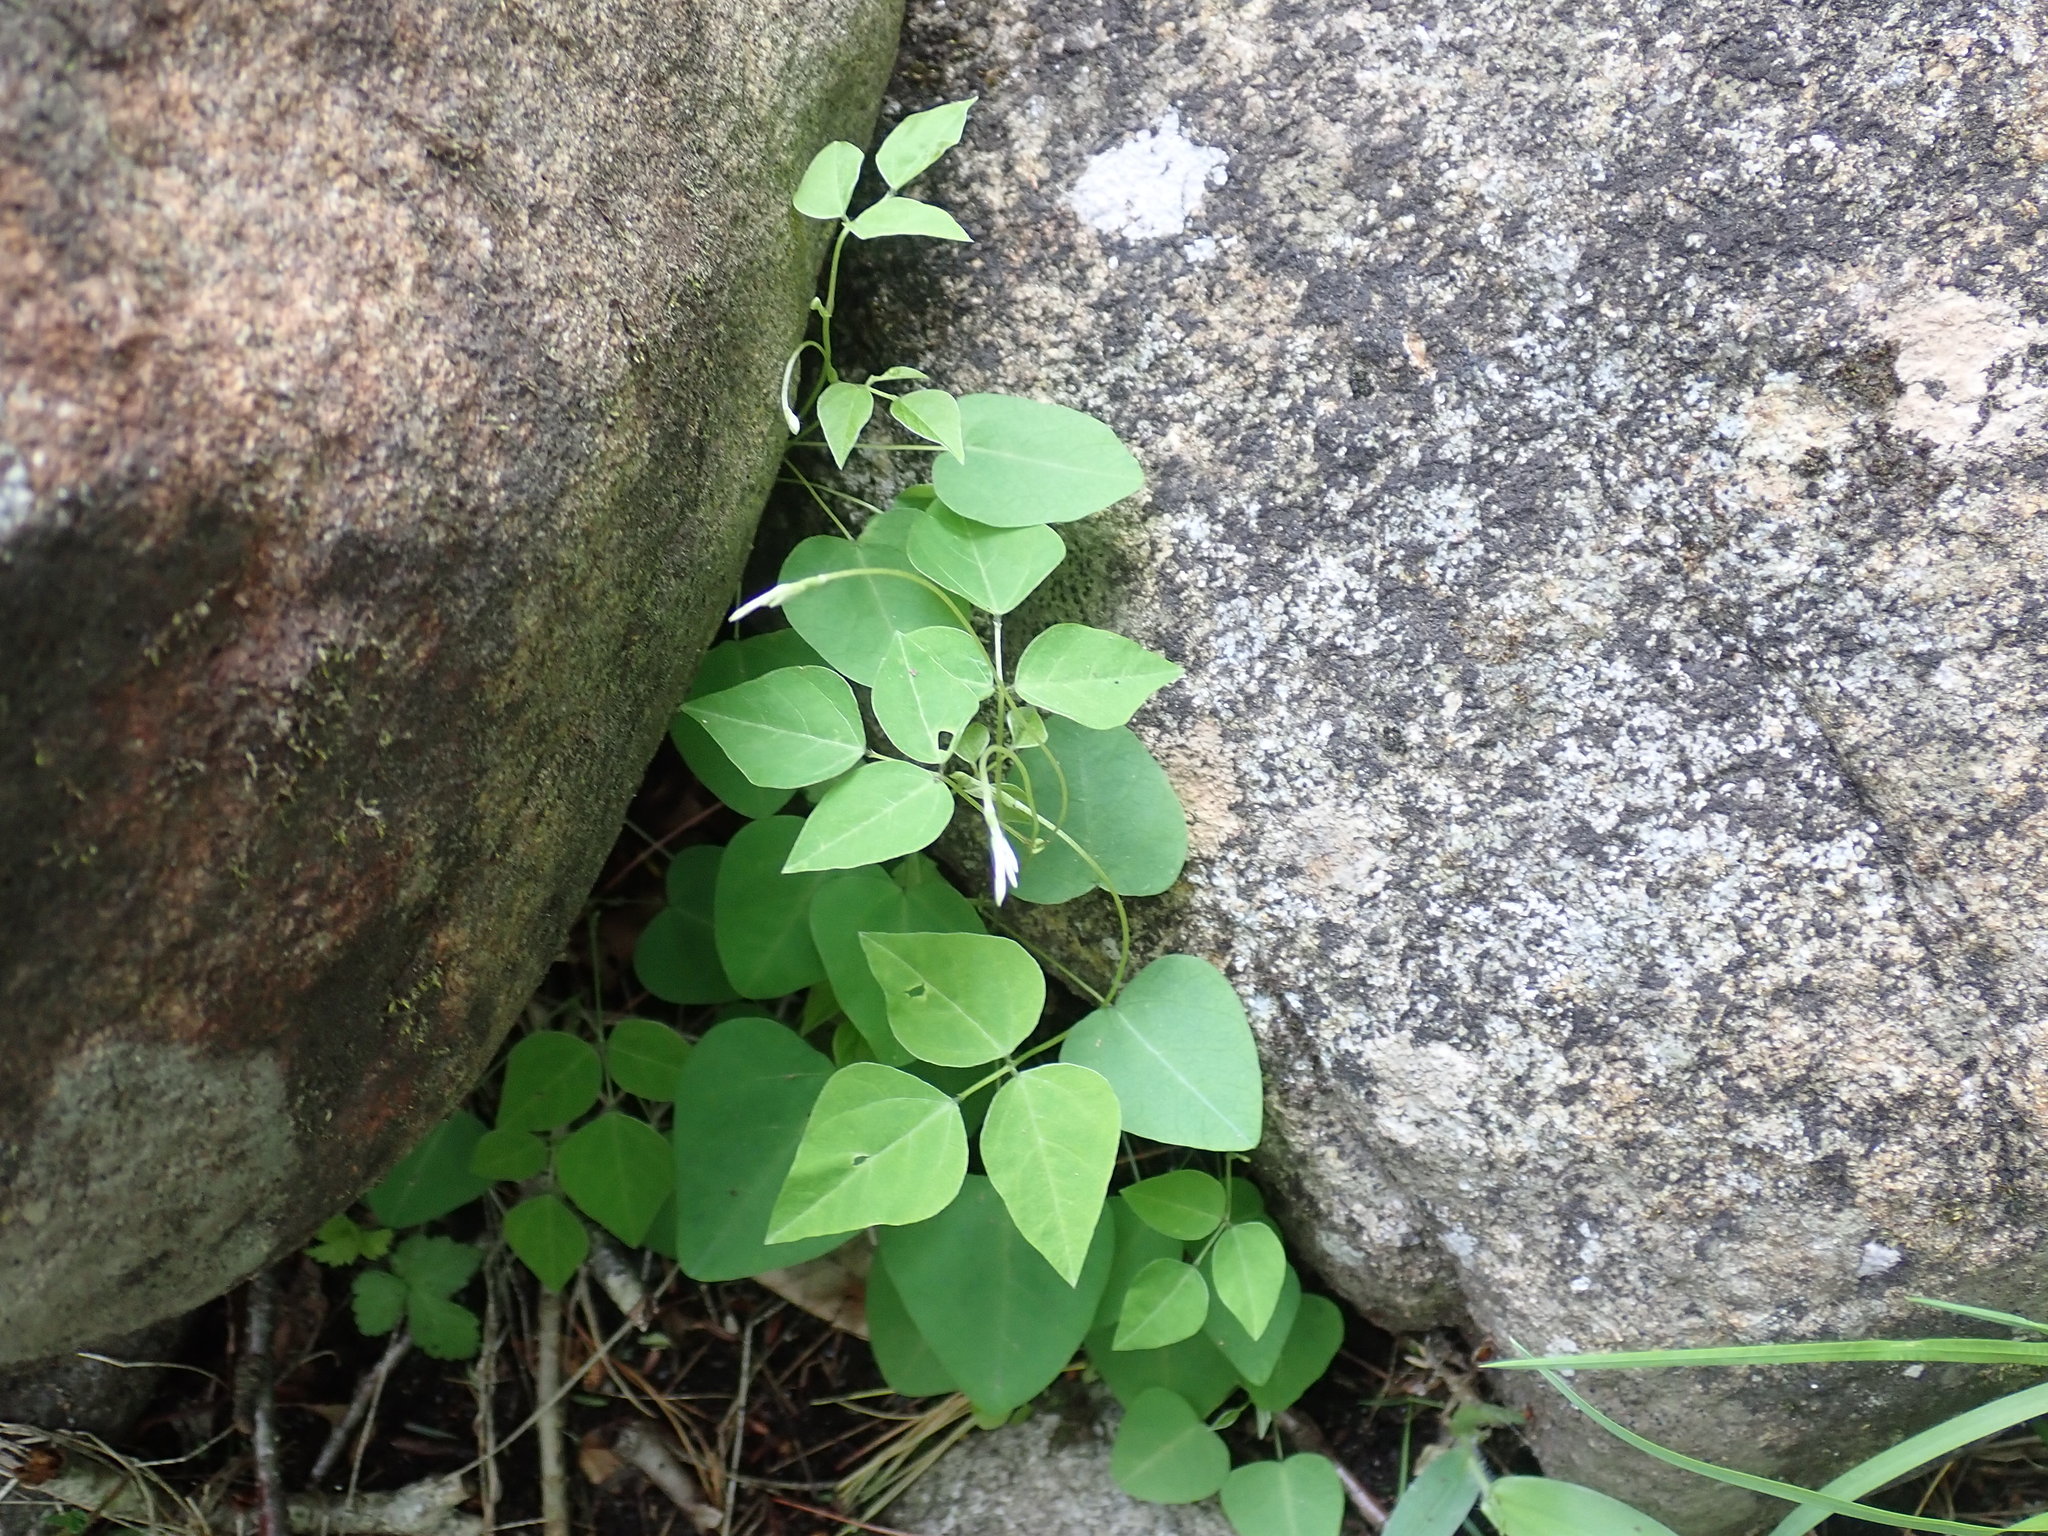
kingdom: Plantae
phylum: Tracheophyta
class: Magnoliopsida
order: Fabales
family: Fabaceae
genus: Amphicarpaea
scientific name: Amphicarpaea bracteata
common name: American hog peanut
